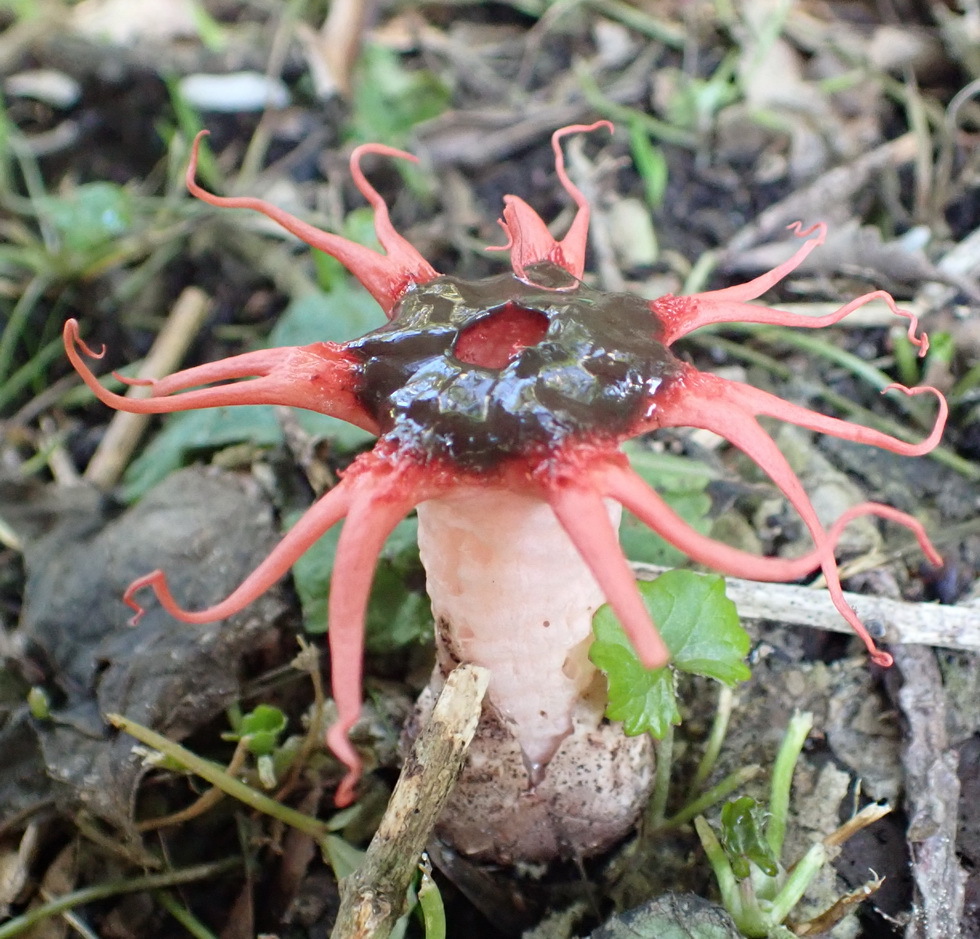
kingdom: Fungi
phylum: Basidiomycota
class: Agaricomycetes
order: Phallales
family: Phallaceae
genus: Aseroe
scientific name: Aseroe rubra
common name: Starfish fungus
